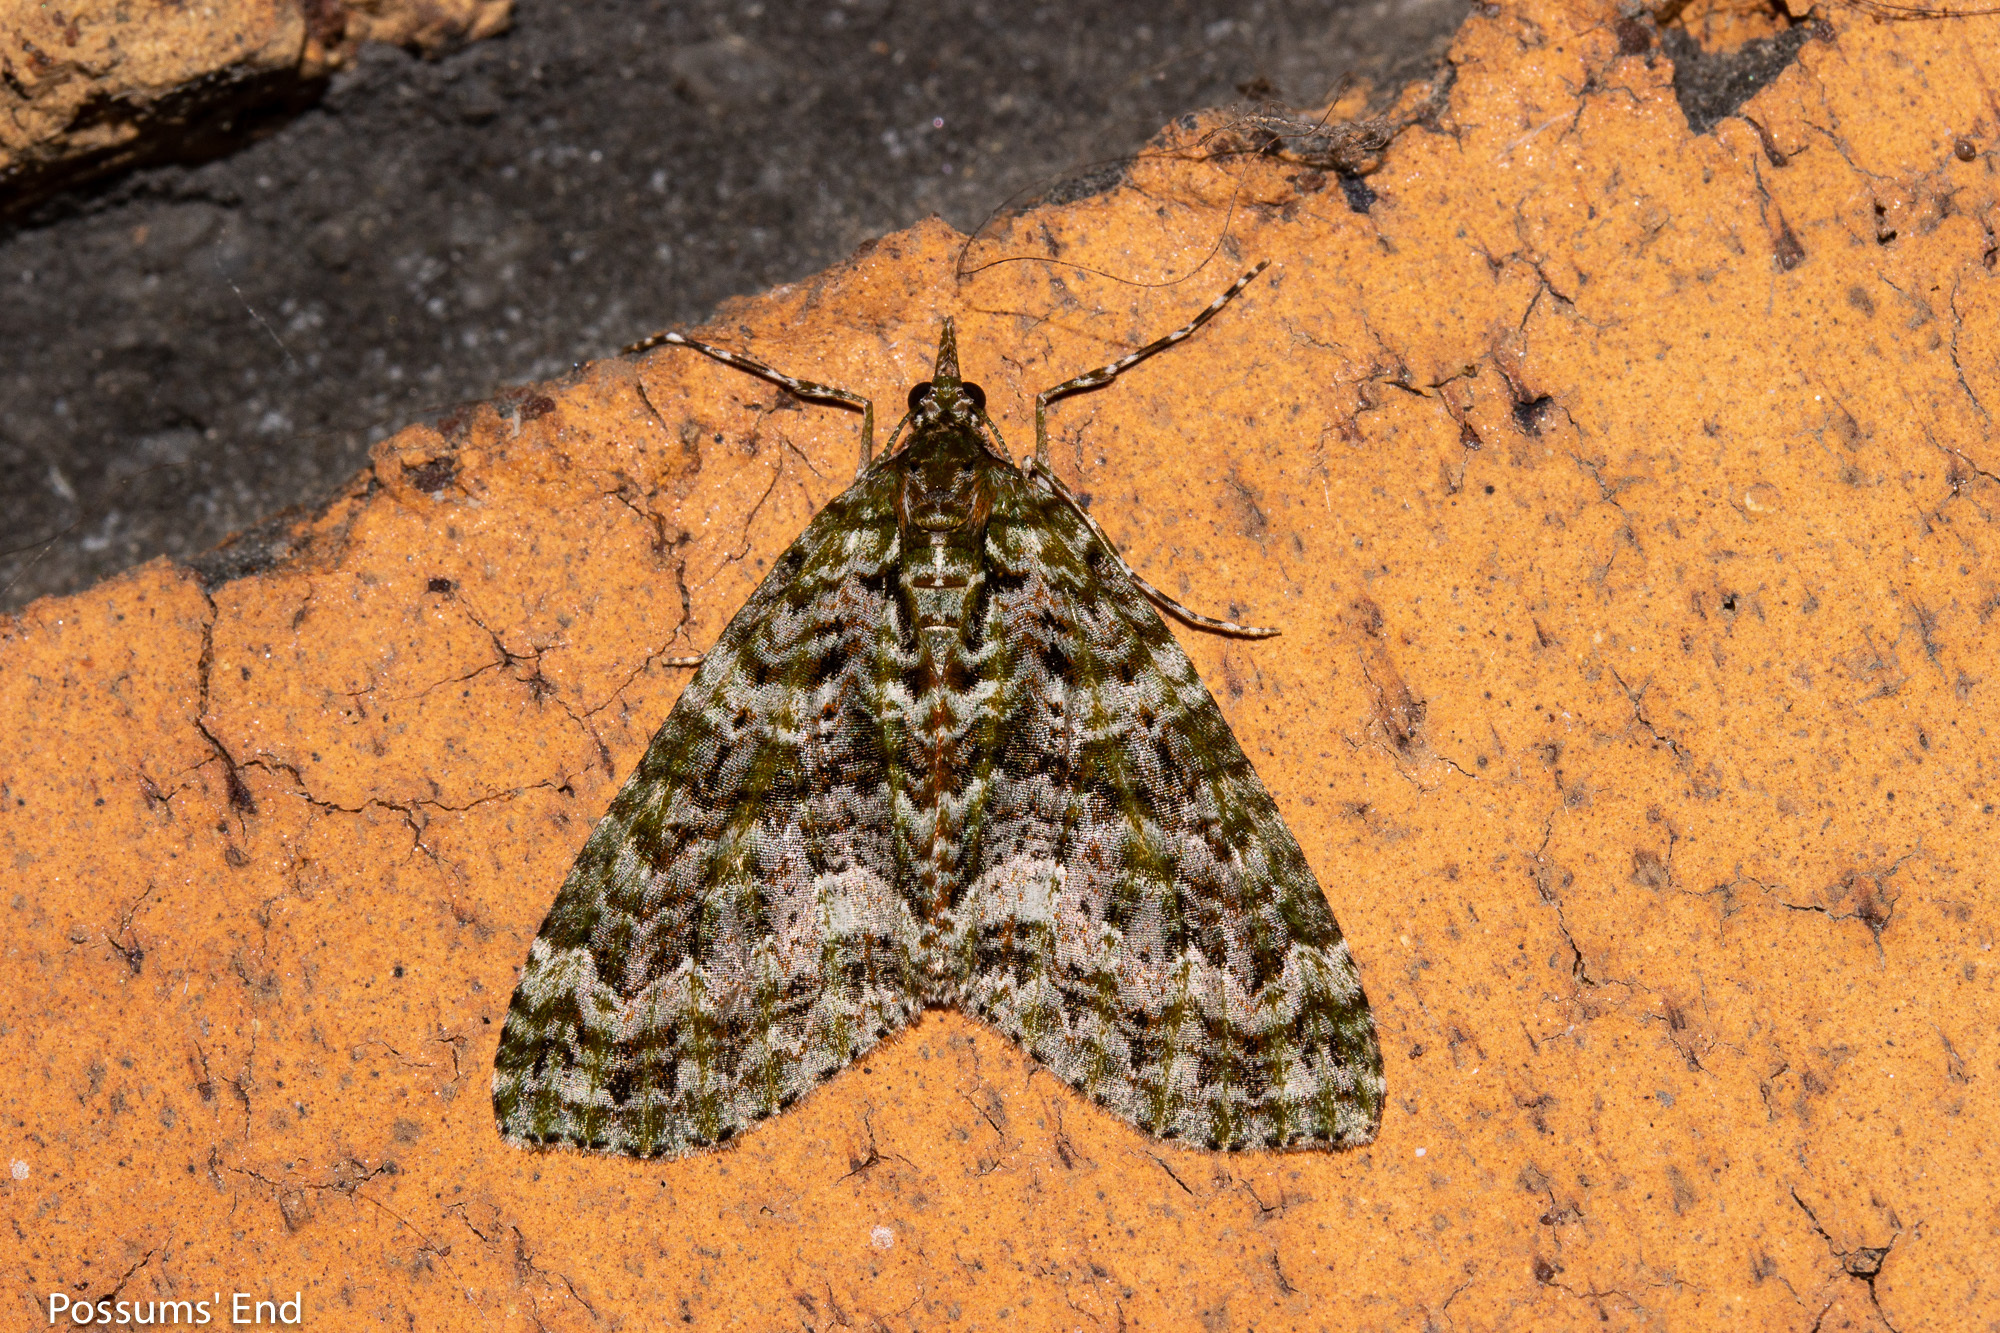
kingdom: Animalia
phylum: Arthropoda
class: Insecta
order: Lepidoptera
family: Geometridae
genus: Tatosoma
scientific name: Tatosoma agrionata
